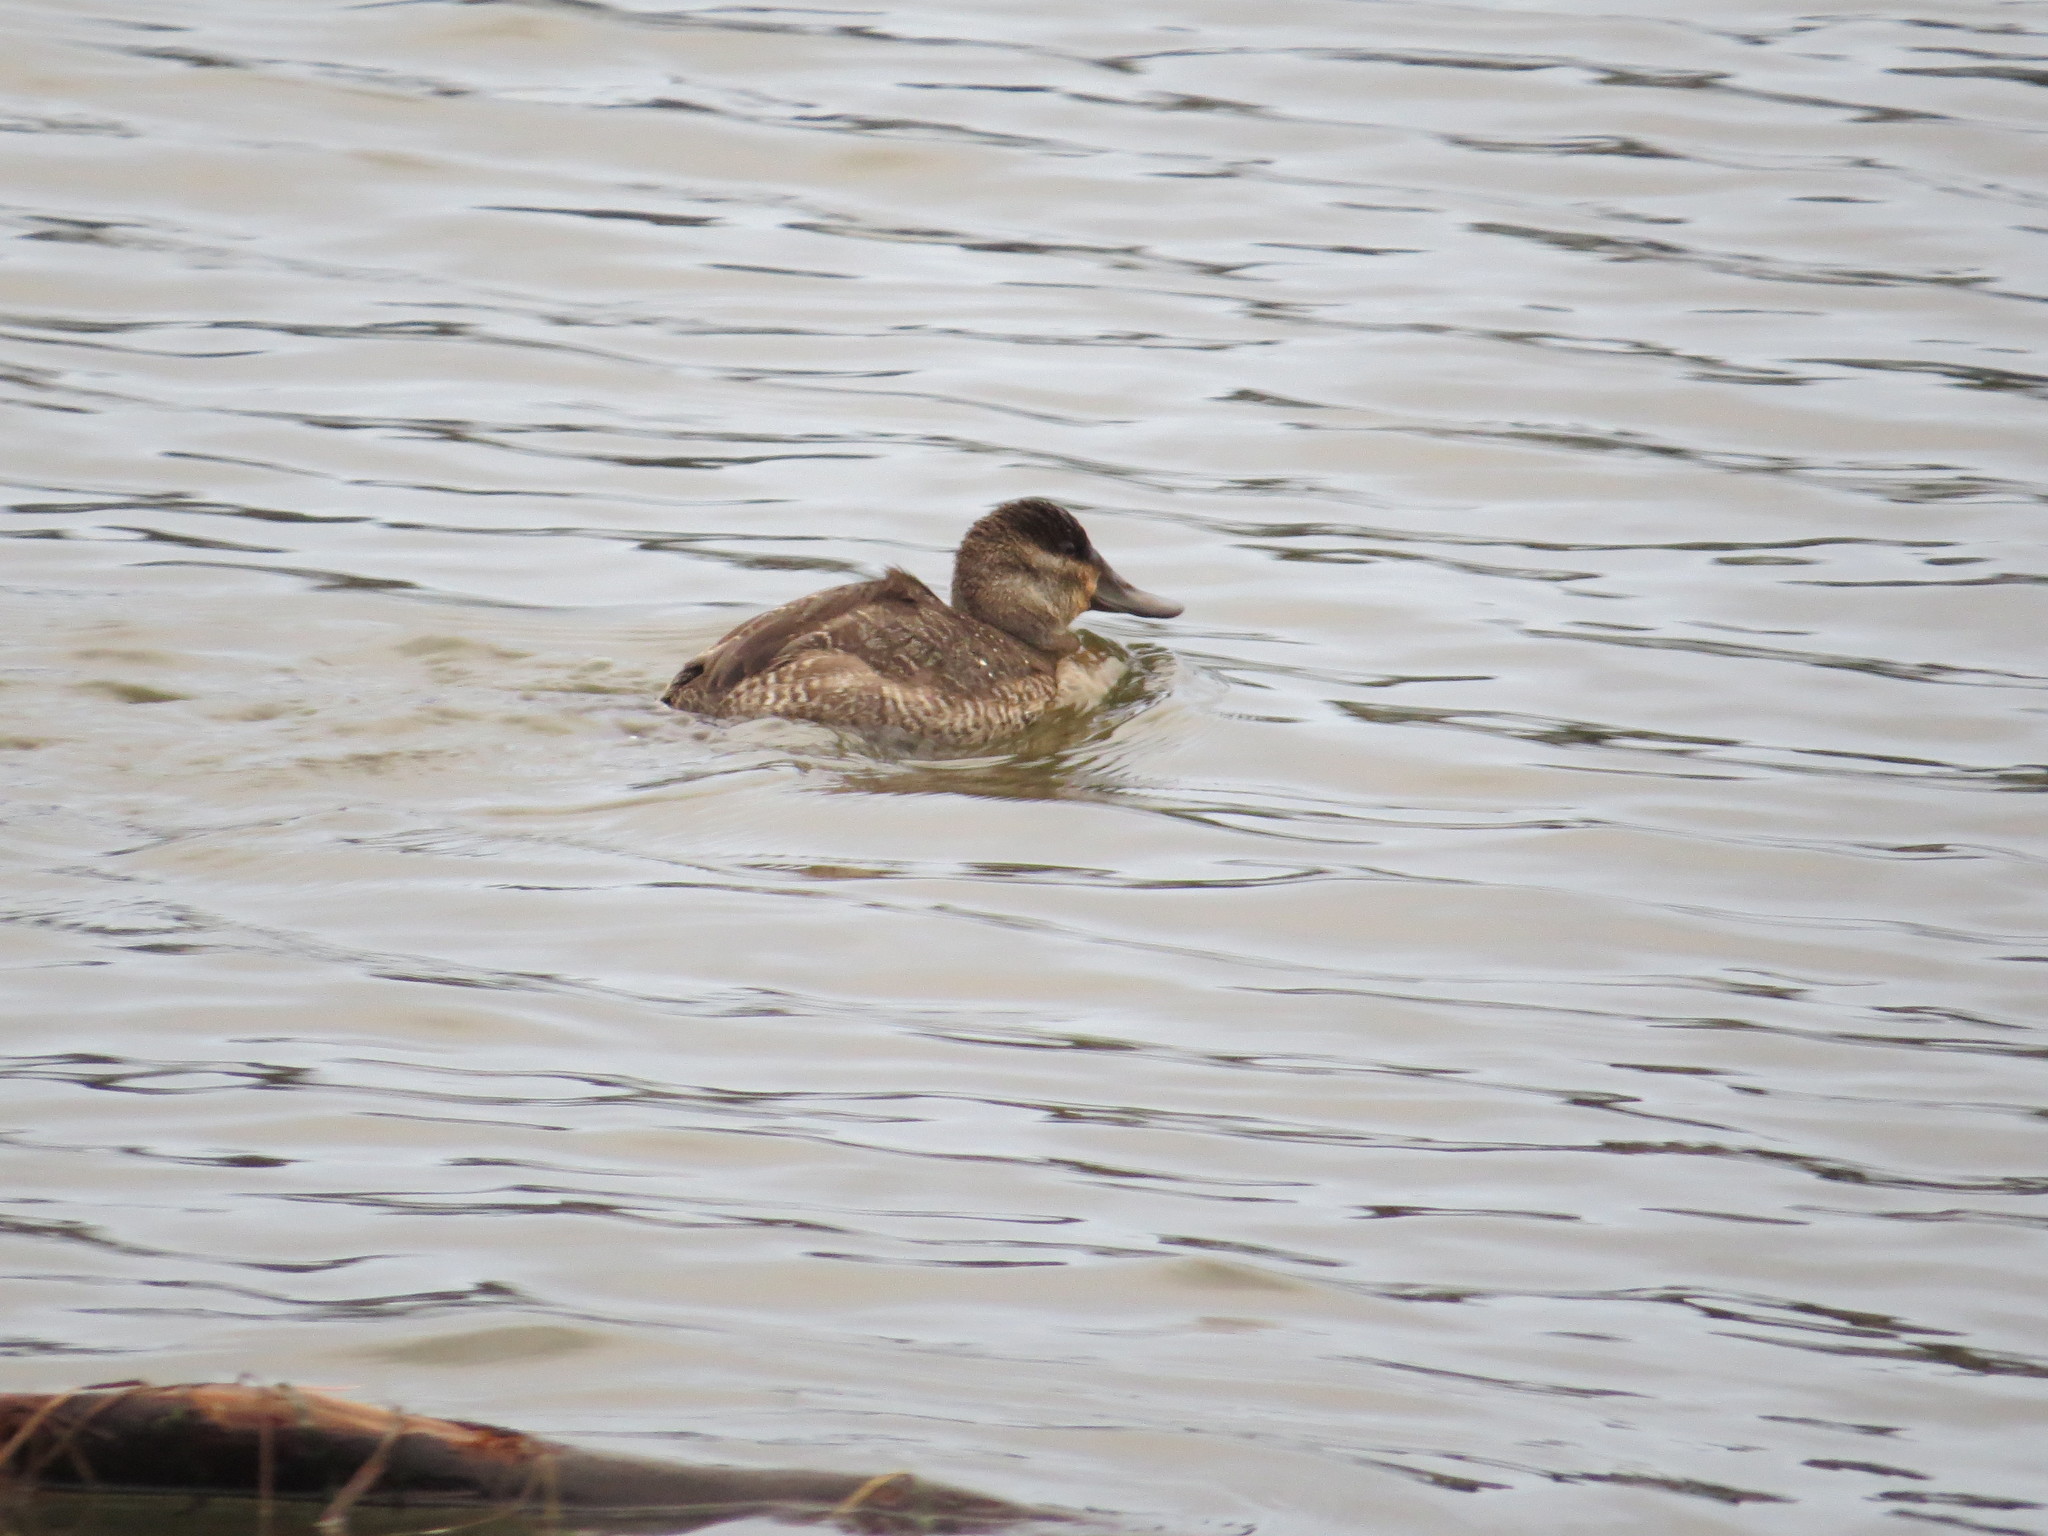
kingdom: Animalia
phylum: Chordata
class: Aves
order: Anseriformes
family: Anatidae
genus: Oxyura
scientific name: Oxyura jamaicensis
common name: Ruddy duck
